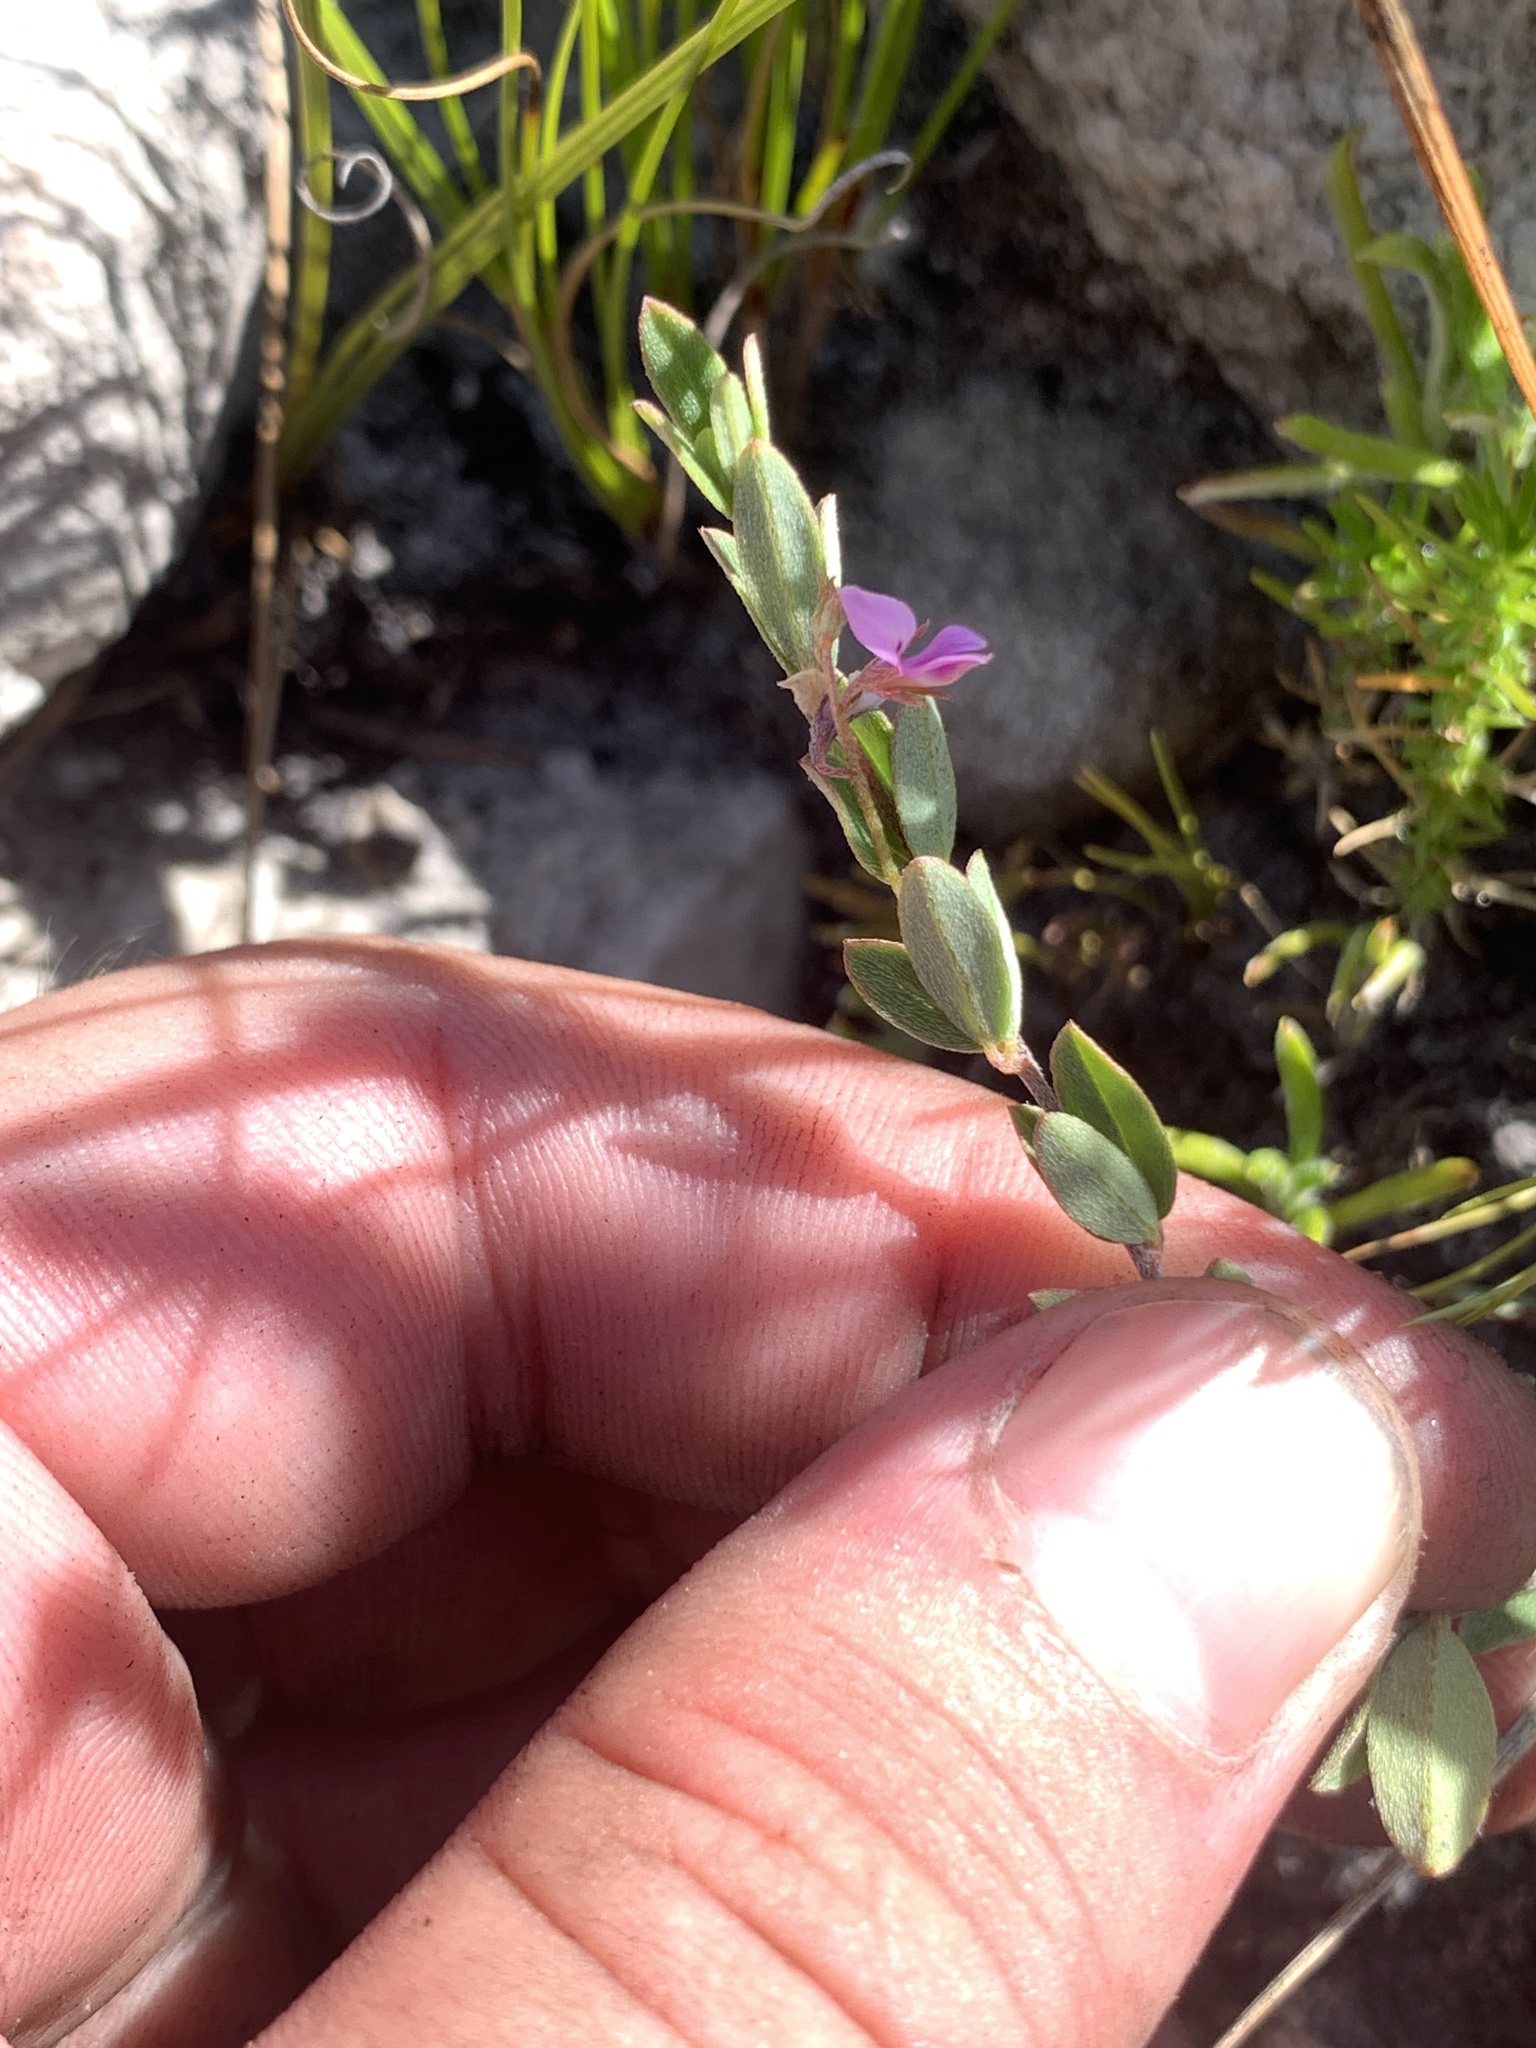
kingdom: Plantae
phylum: Tracheophyta
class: Magnoliopsida
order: Fabales
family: Fabaceae
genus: Indigofera
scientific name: Indigofera sarmentosa
